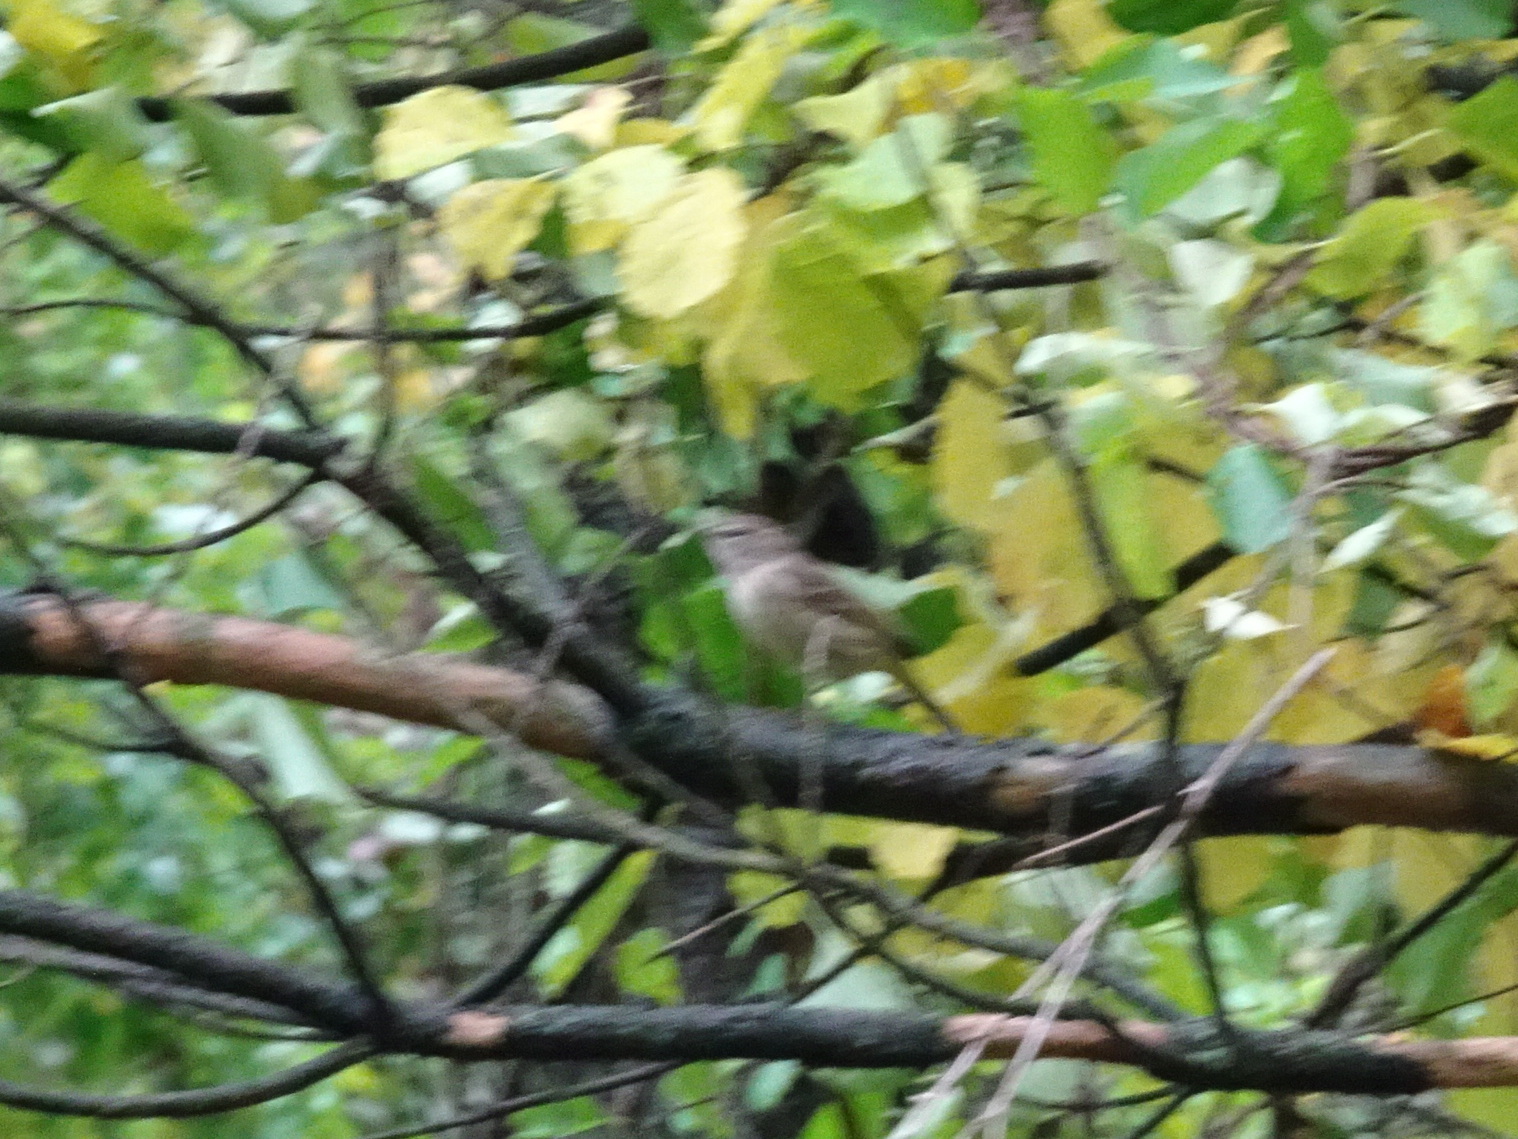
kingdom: Animalia
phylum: Chordata
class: Aves
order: Passeriformes
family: Vireonidae
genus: Vireo
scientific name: Vireo solitarius
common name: Blue-headed vireo
